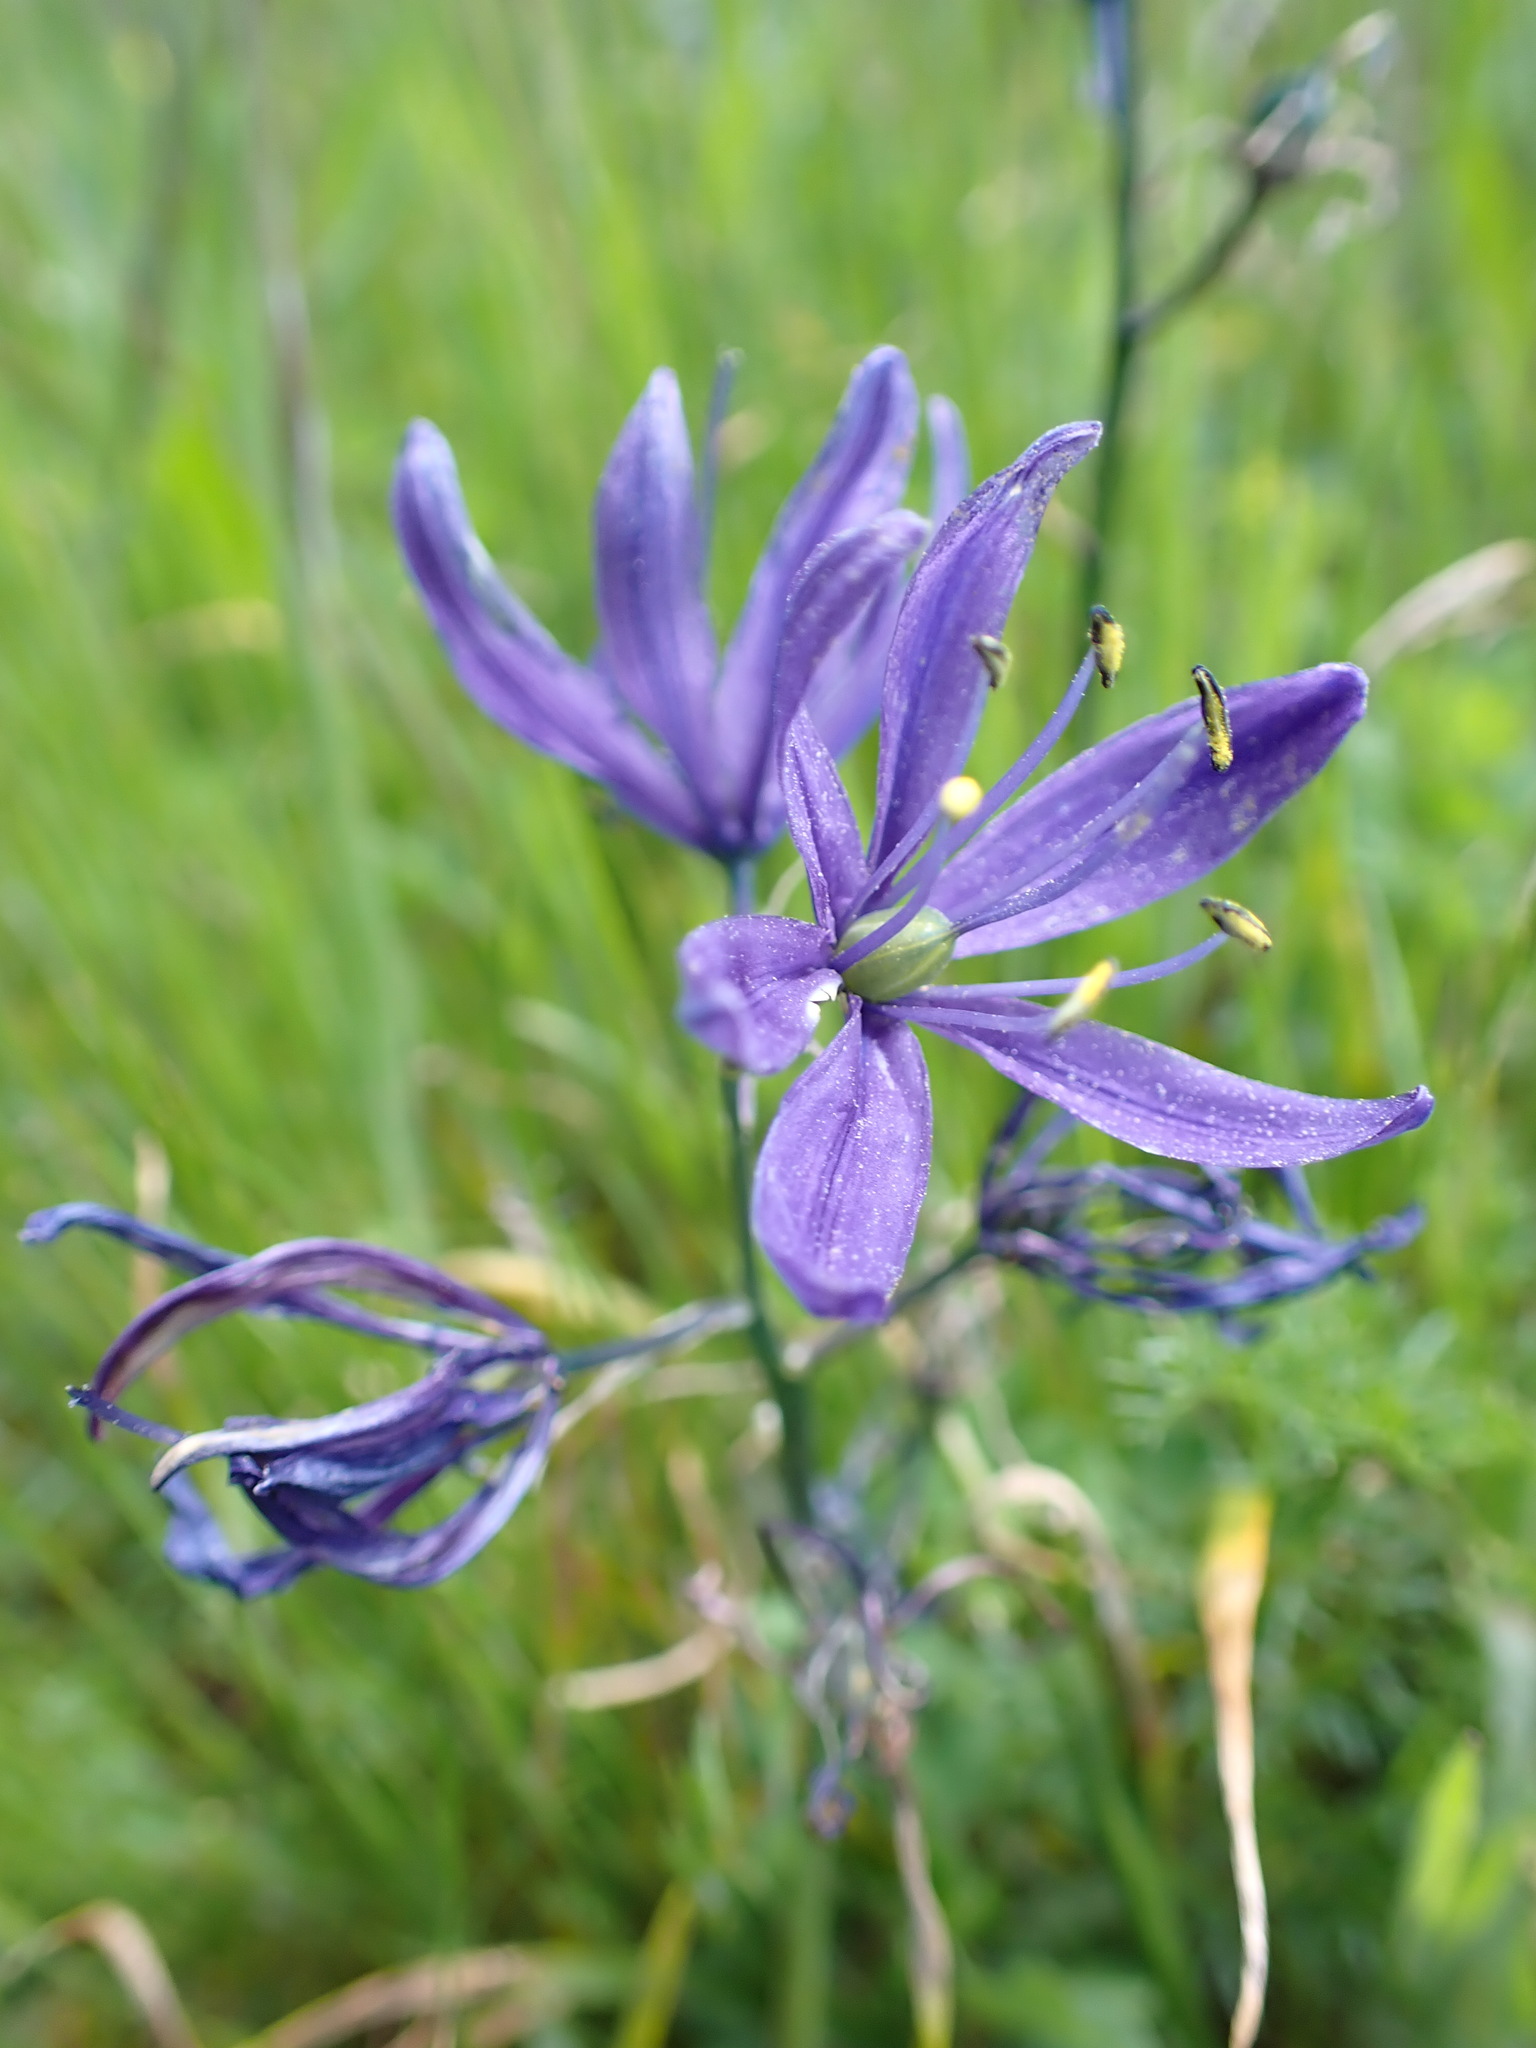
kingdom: Plantae
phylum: Tracheophyta
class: Liliopsida
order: Asparagales
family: Asparagaceae
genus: Camassia
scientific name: Camassia quamash
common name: Common camas
